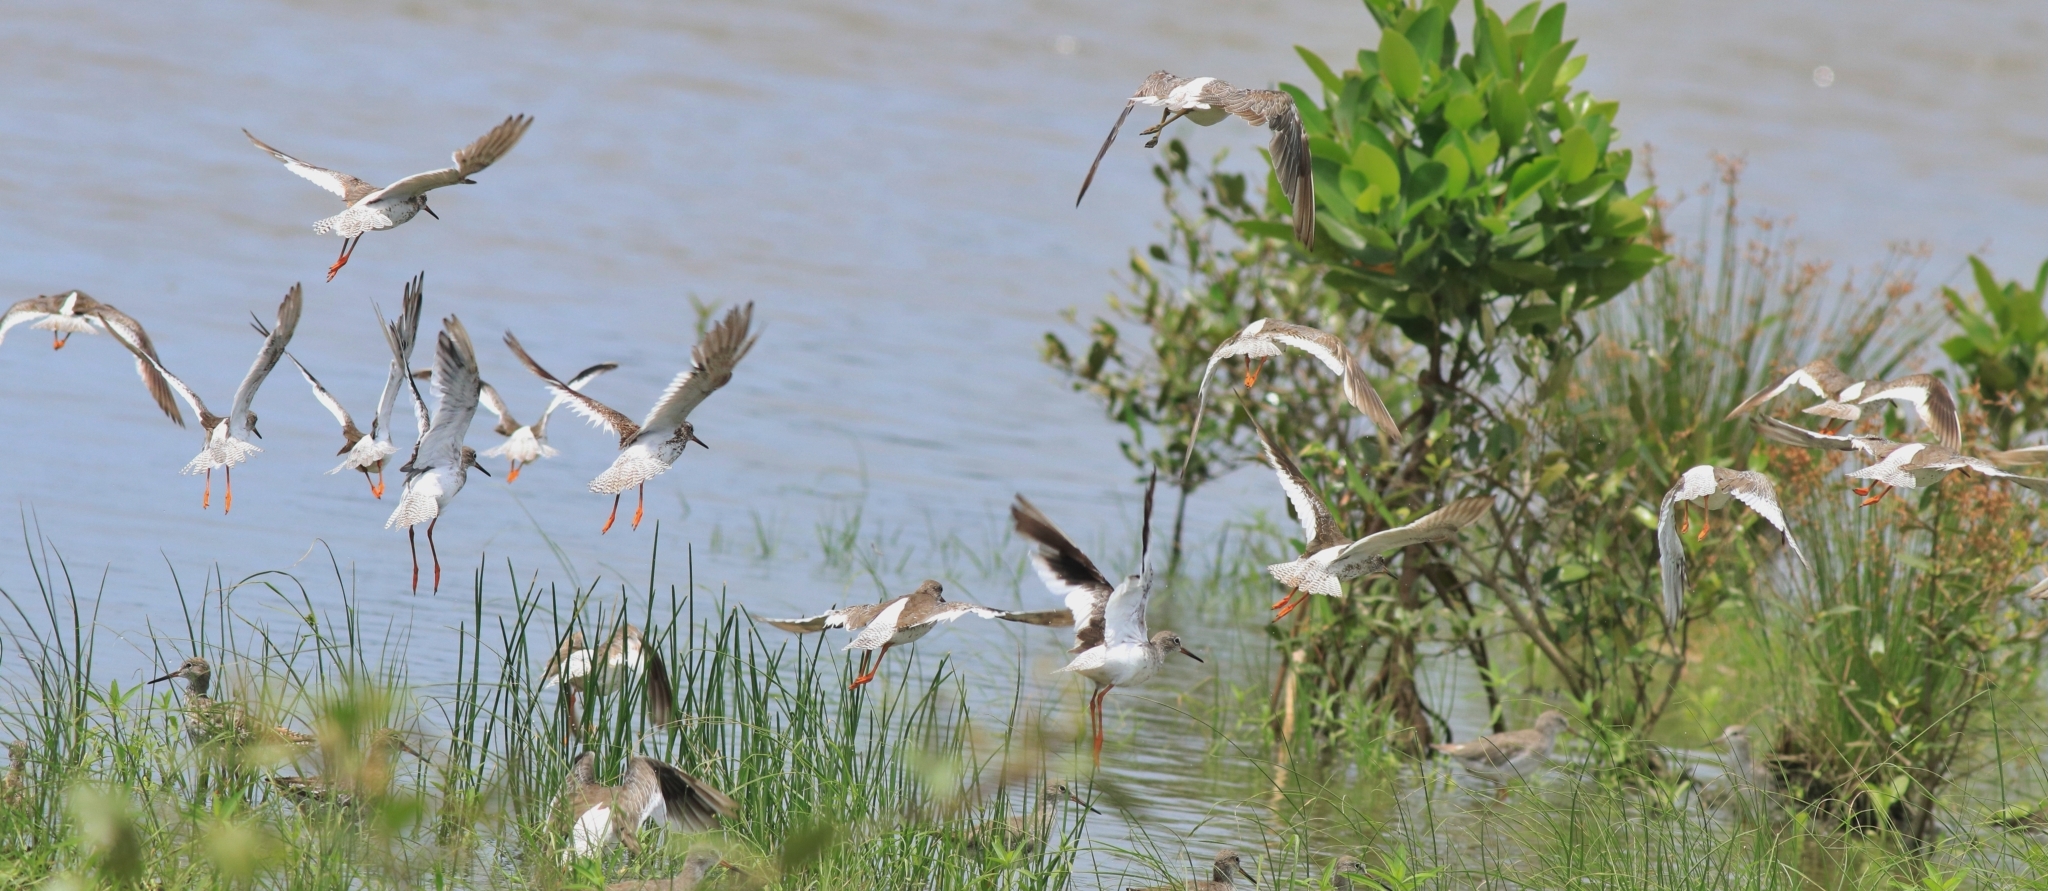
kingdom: Animalia
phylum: Chordata
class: Aves
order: Charadriiformes
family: Scolopacidae
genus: Tringa
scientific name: Tringa totanus
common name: Common redshank
